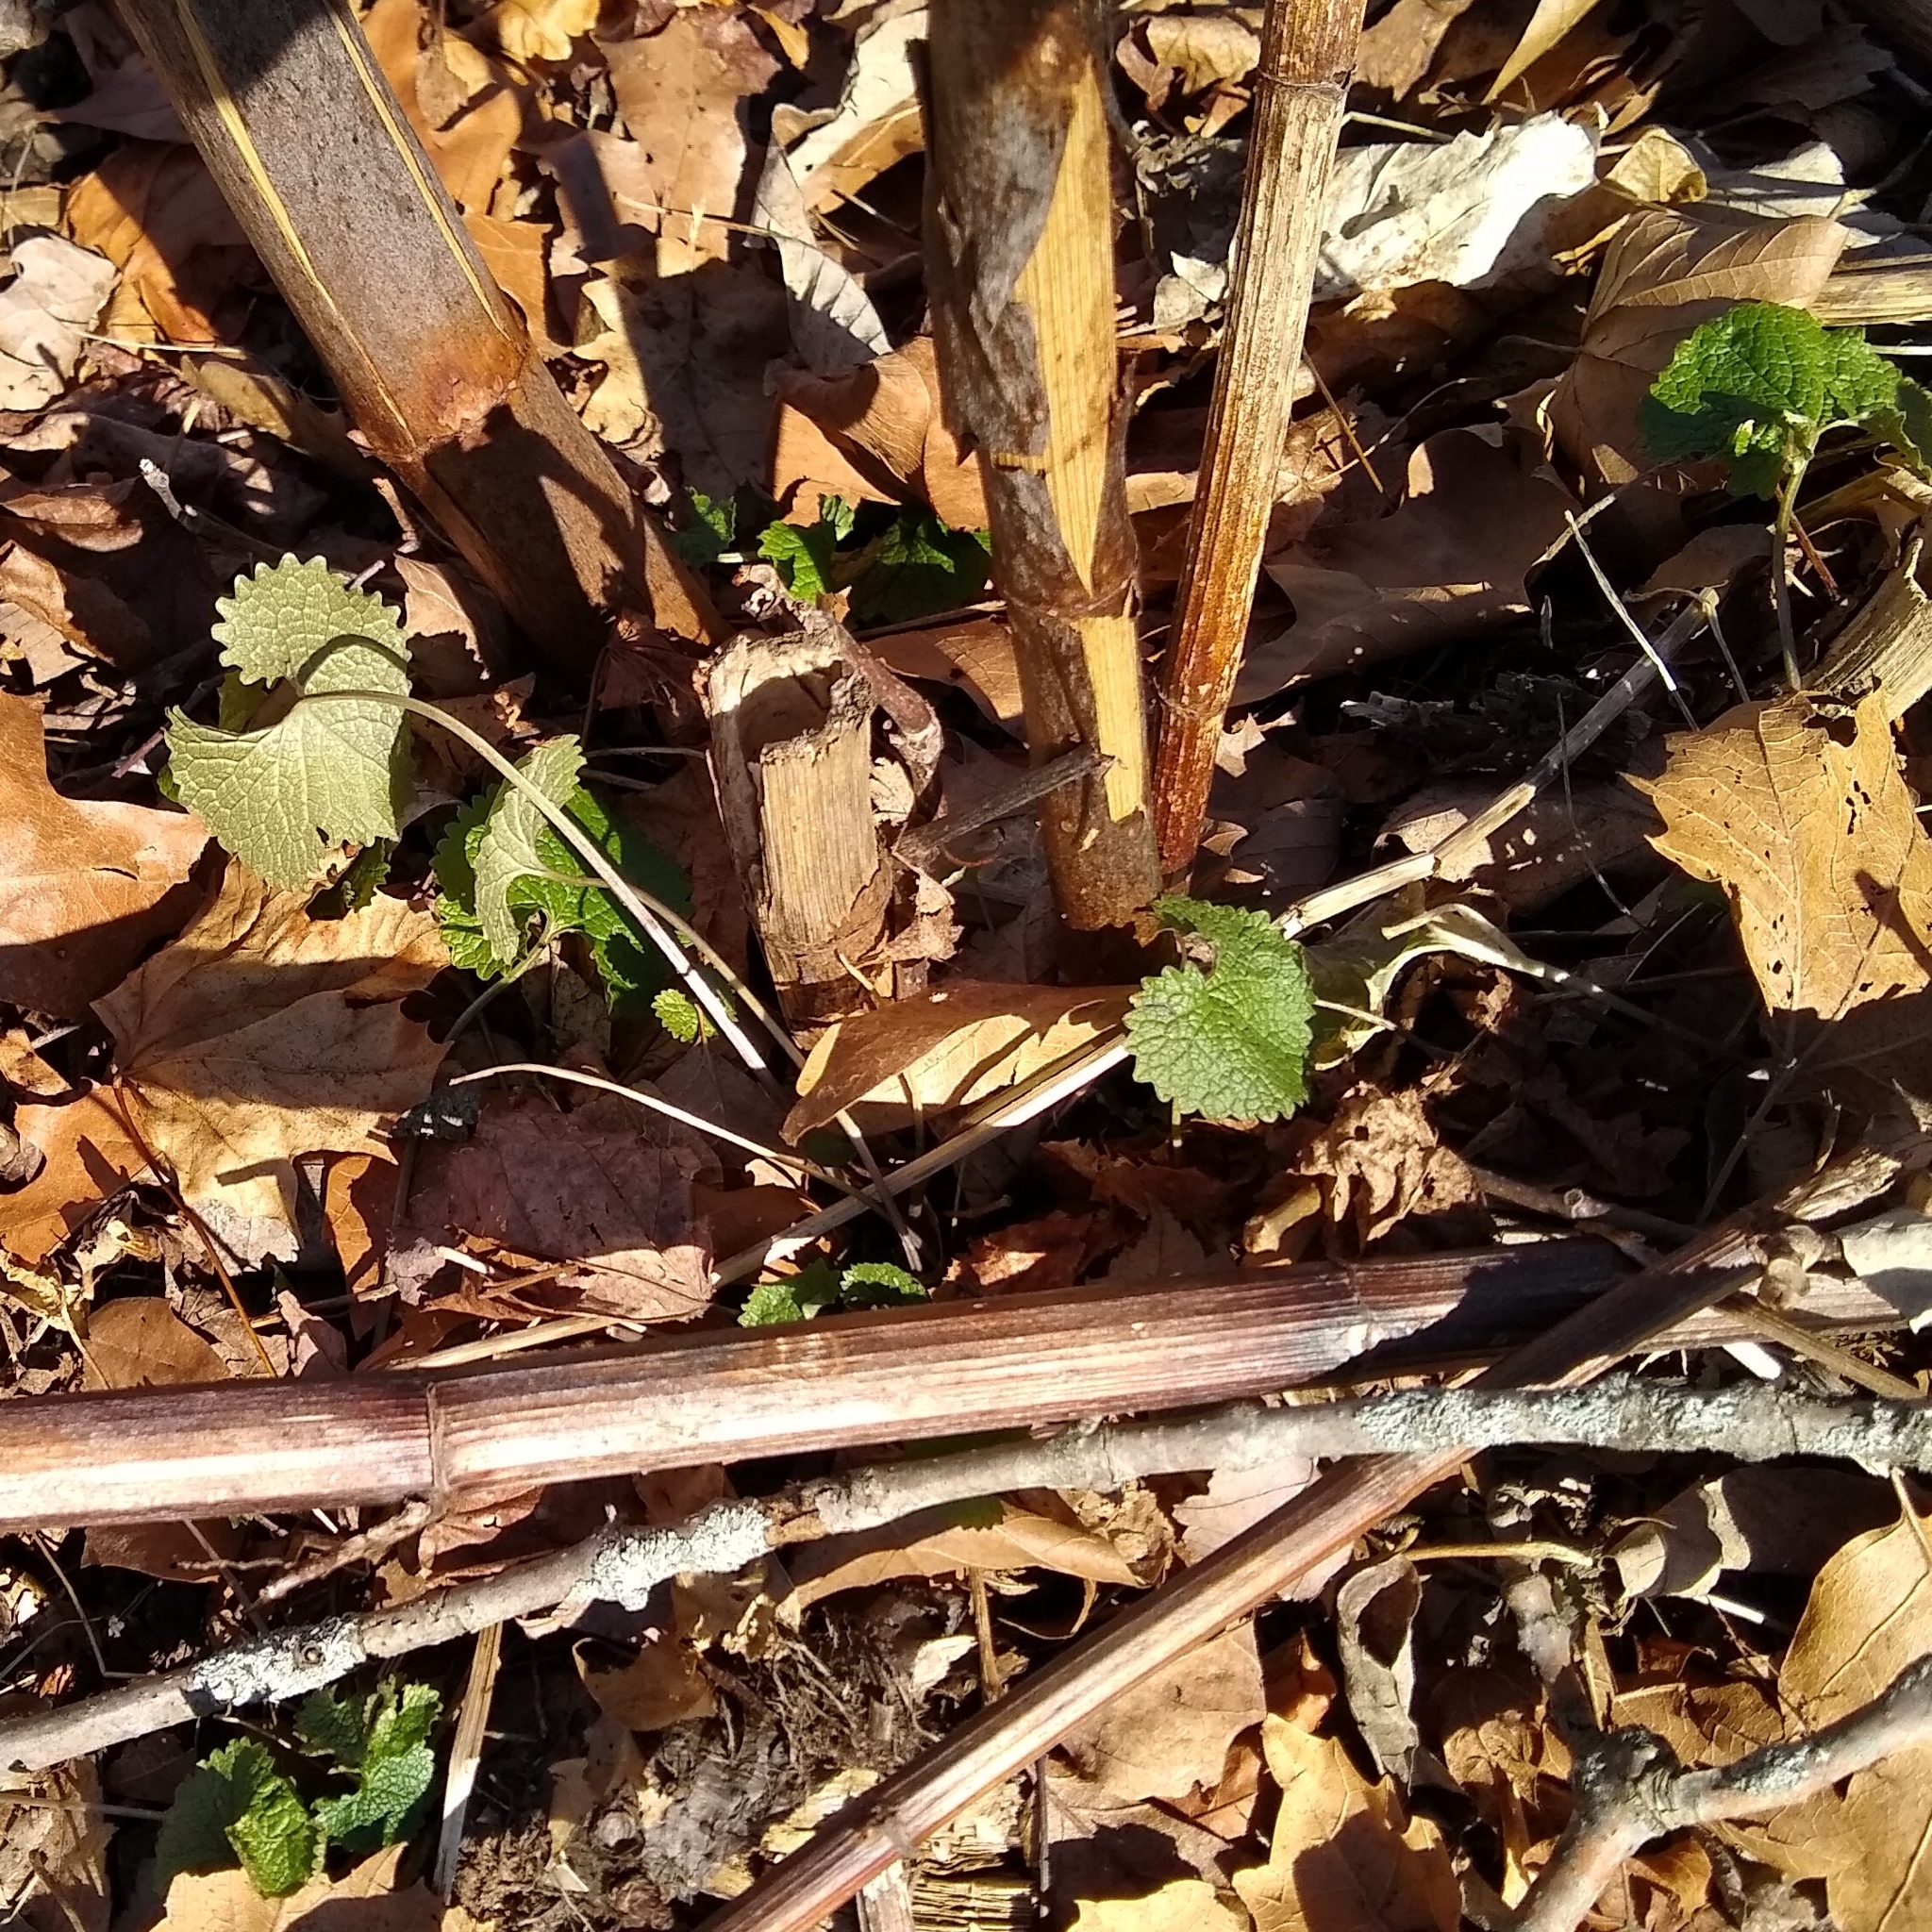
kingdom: Plantae
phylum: Tracheophyta
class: Magnoliopsida
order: Brassicales
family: Brassicaceae
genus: Alliaria
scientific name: Alliaria petiolata
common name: Garlic mustard
